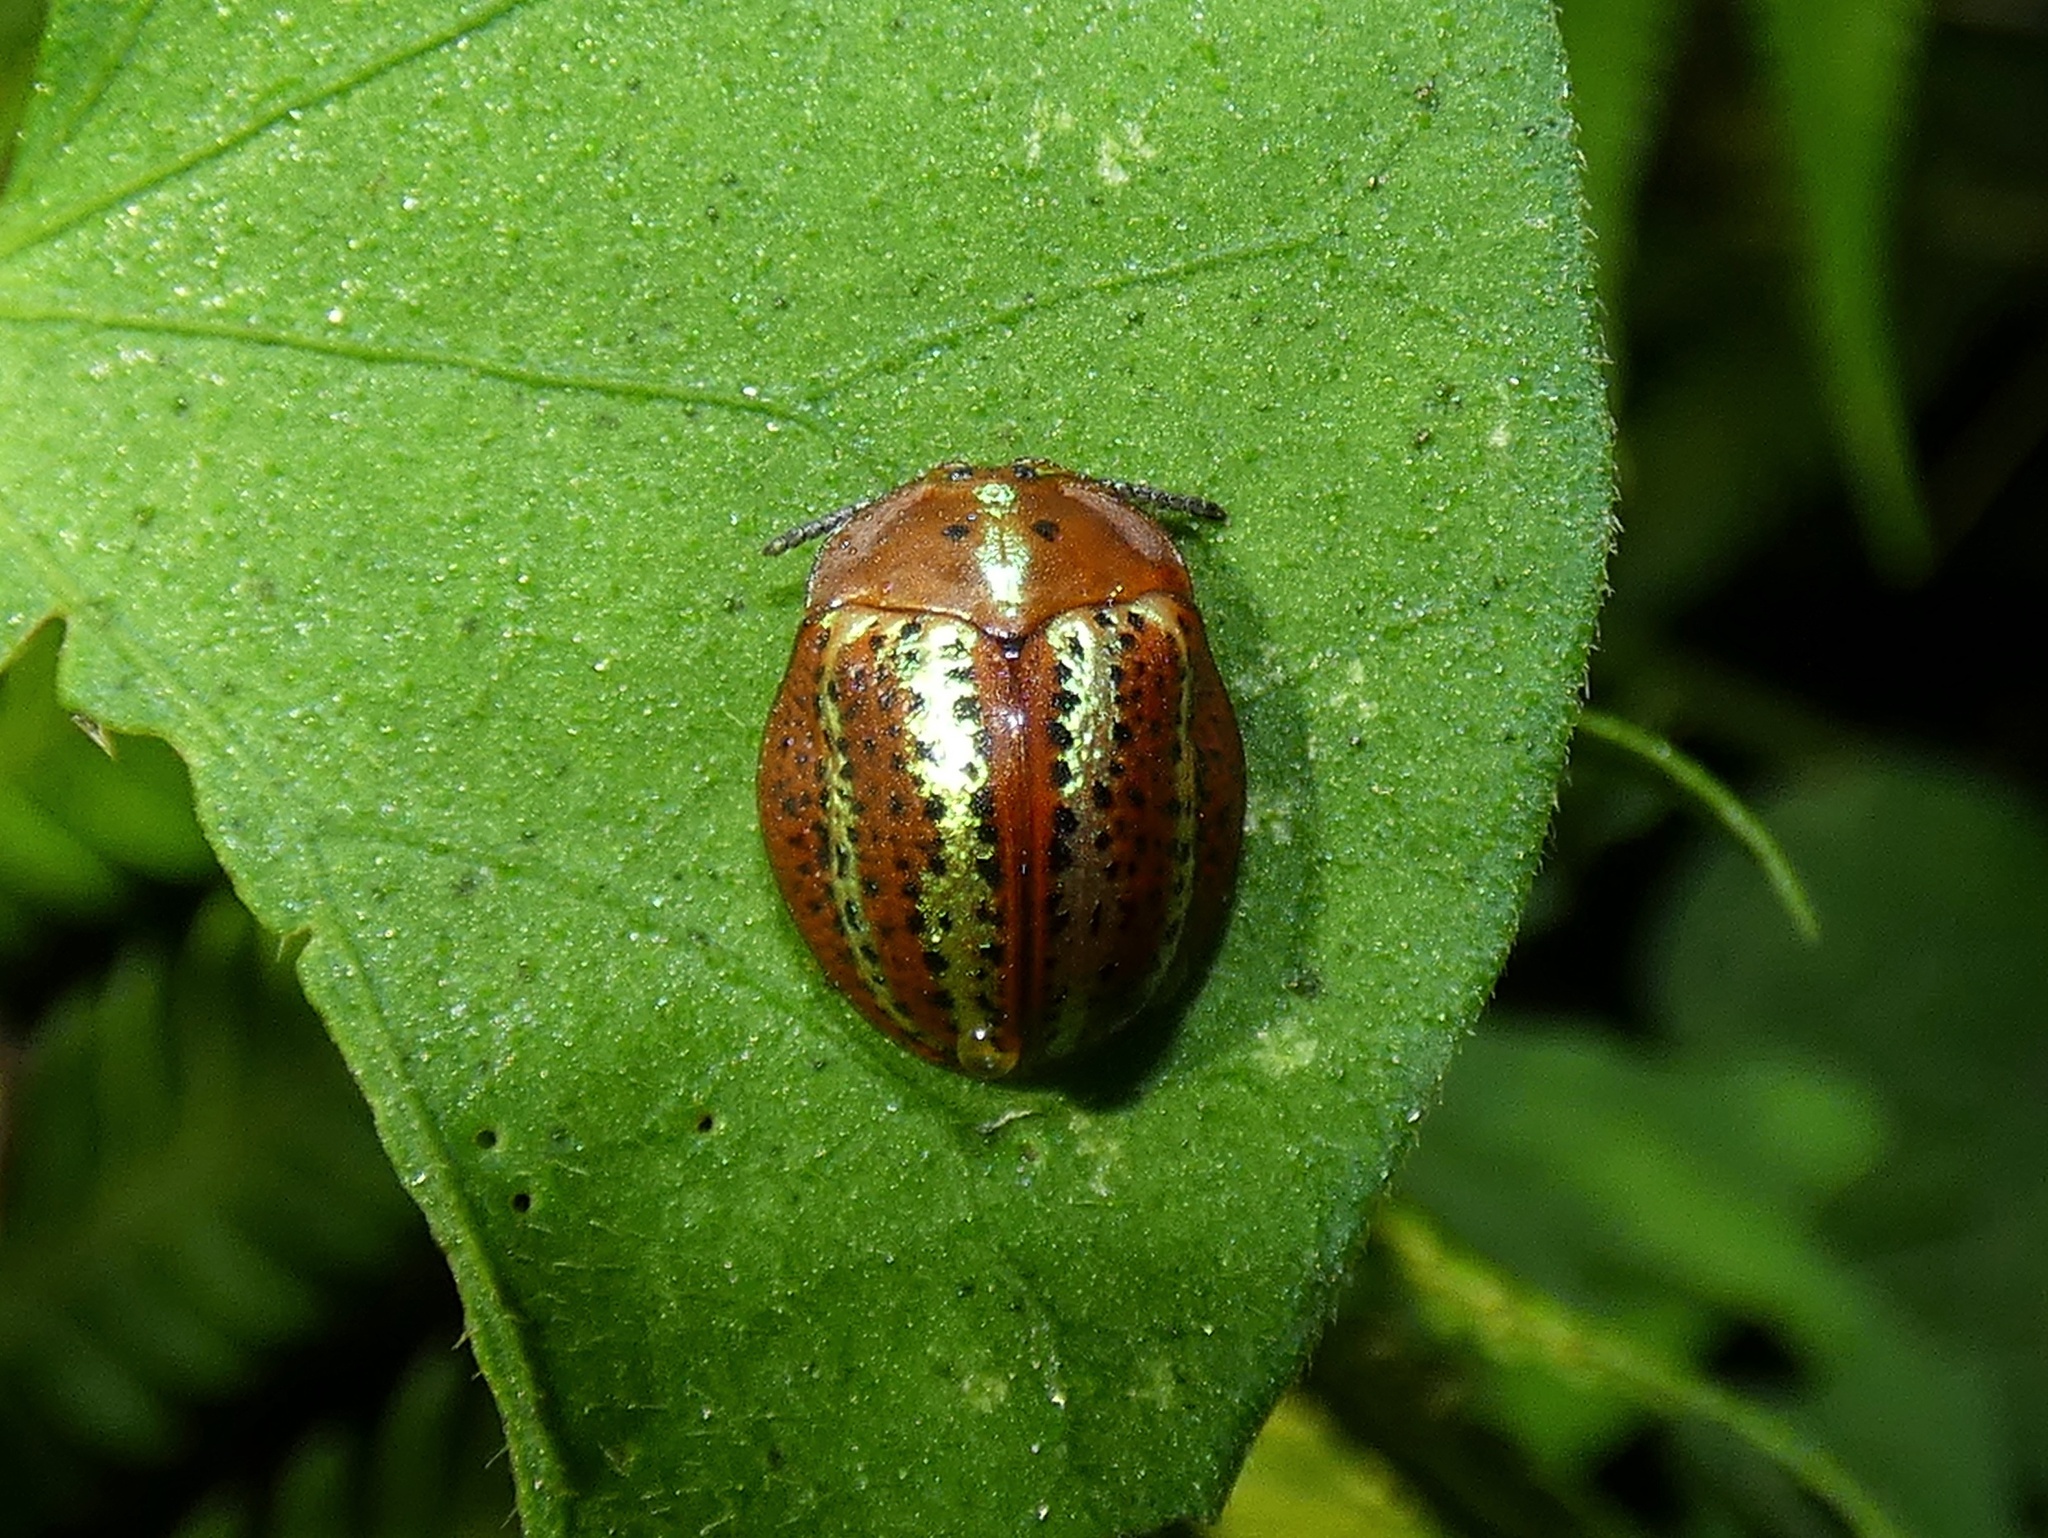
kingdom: Animalia
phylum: Arthropoda
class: Insecta
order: Coleoptera
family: Chrysomelidae
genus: Chelymorpha
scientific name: Chelymorpha cribraria
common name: Tortoise beetle
